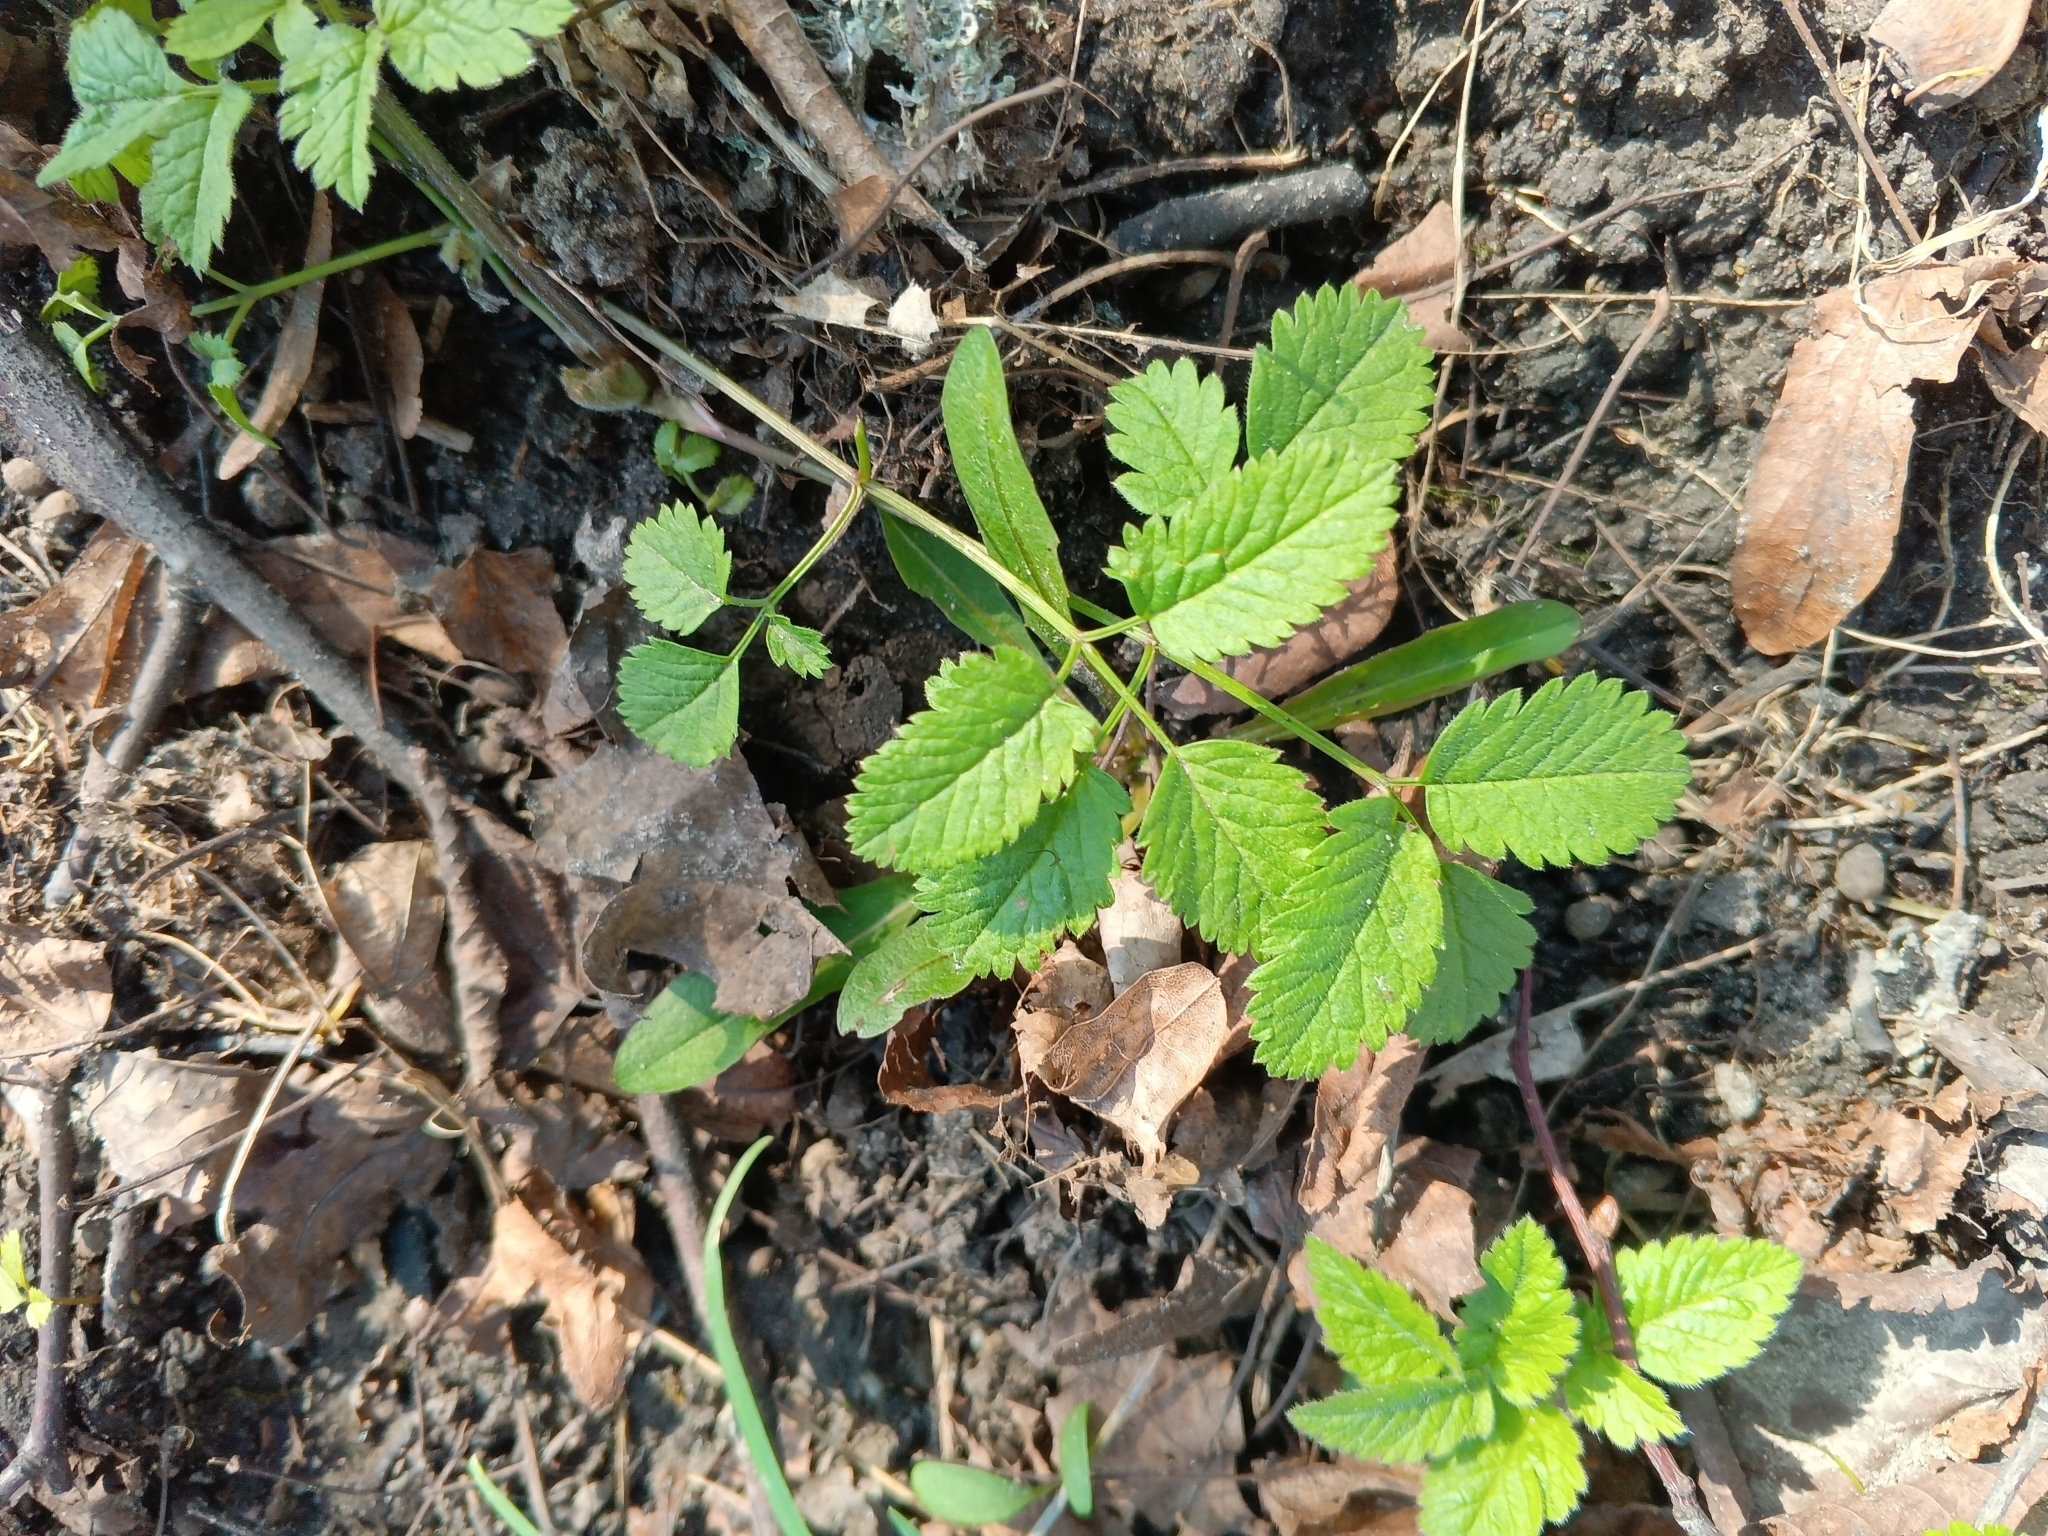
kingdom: Plantae
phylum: Tracheophyta
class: Magnoliopsida
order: Apiales
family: Apiaceae
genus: Chaerophyllum
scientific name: Chaerophyllum aromaticum
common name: Broadleaf chervil
